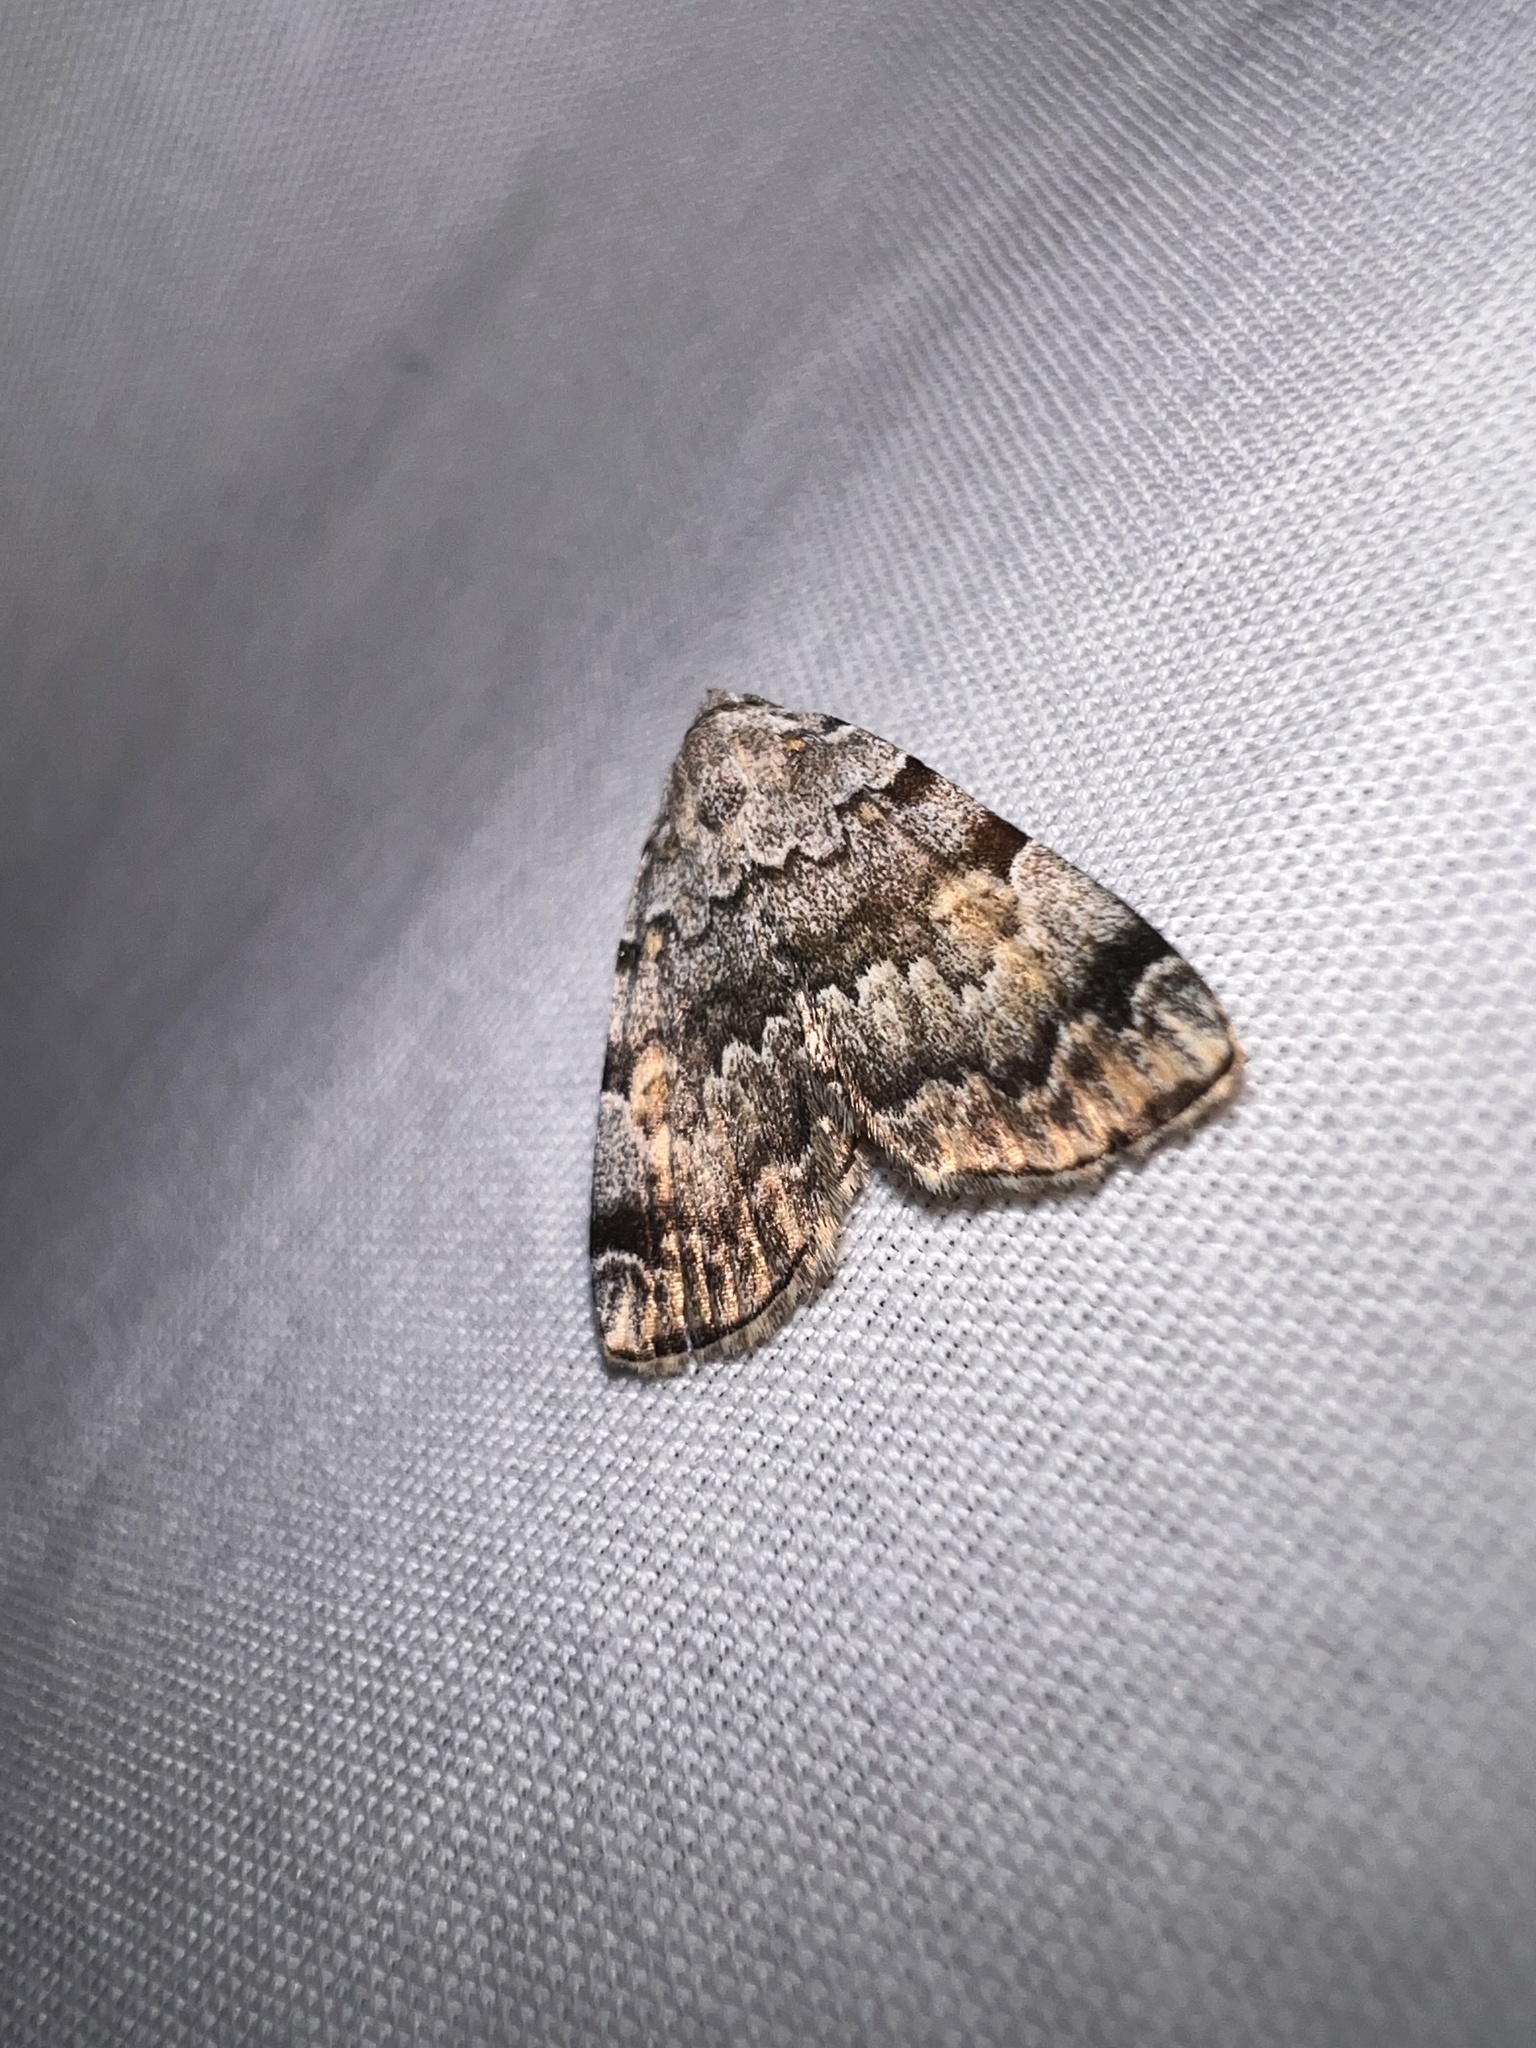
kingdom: Animalia
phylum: Arthropoda
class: Insecta
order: Lepidoptera
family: Erebidae
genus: Idia
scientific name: Idia americalis
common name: American idia moth
